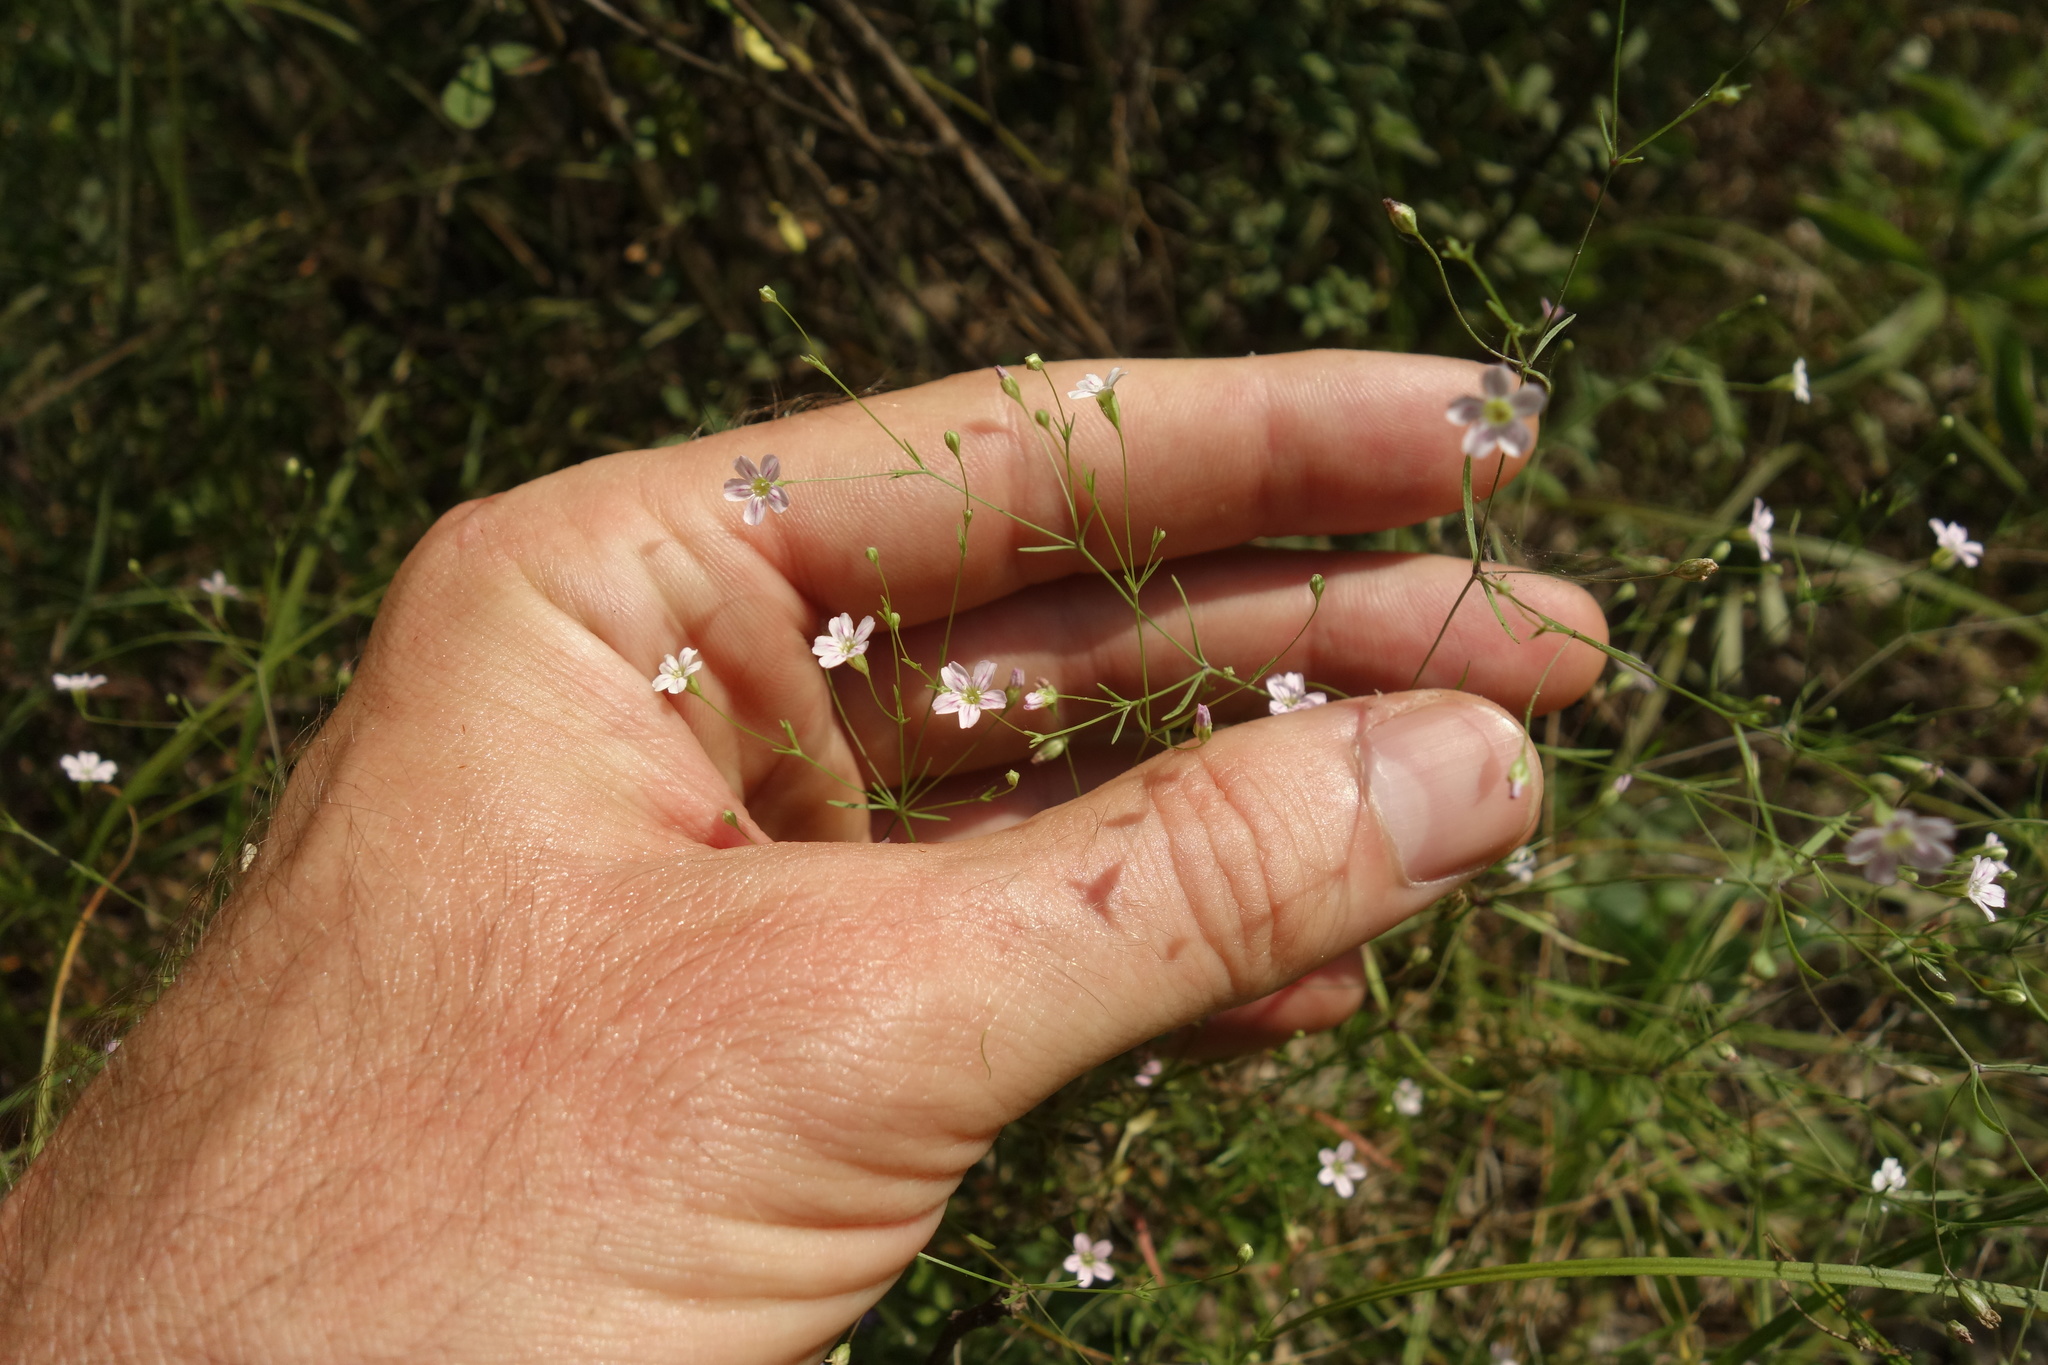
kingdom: Plantae
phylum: Tracheophyta
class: Magnoliopsida
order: Caryophyllales
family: Caryophyllaceae
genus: Psammophiliella
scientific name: Psammophiliella muralis
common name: Cushion baby's-breath
